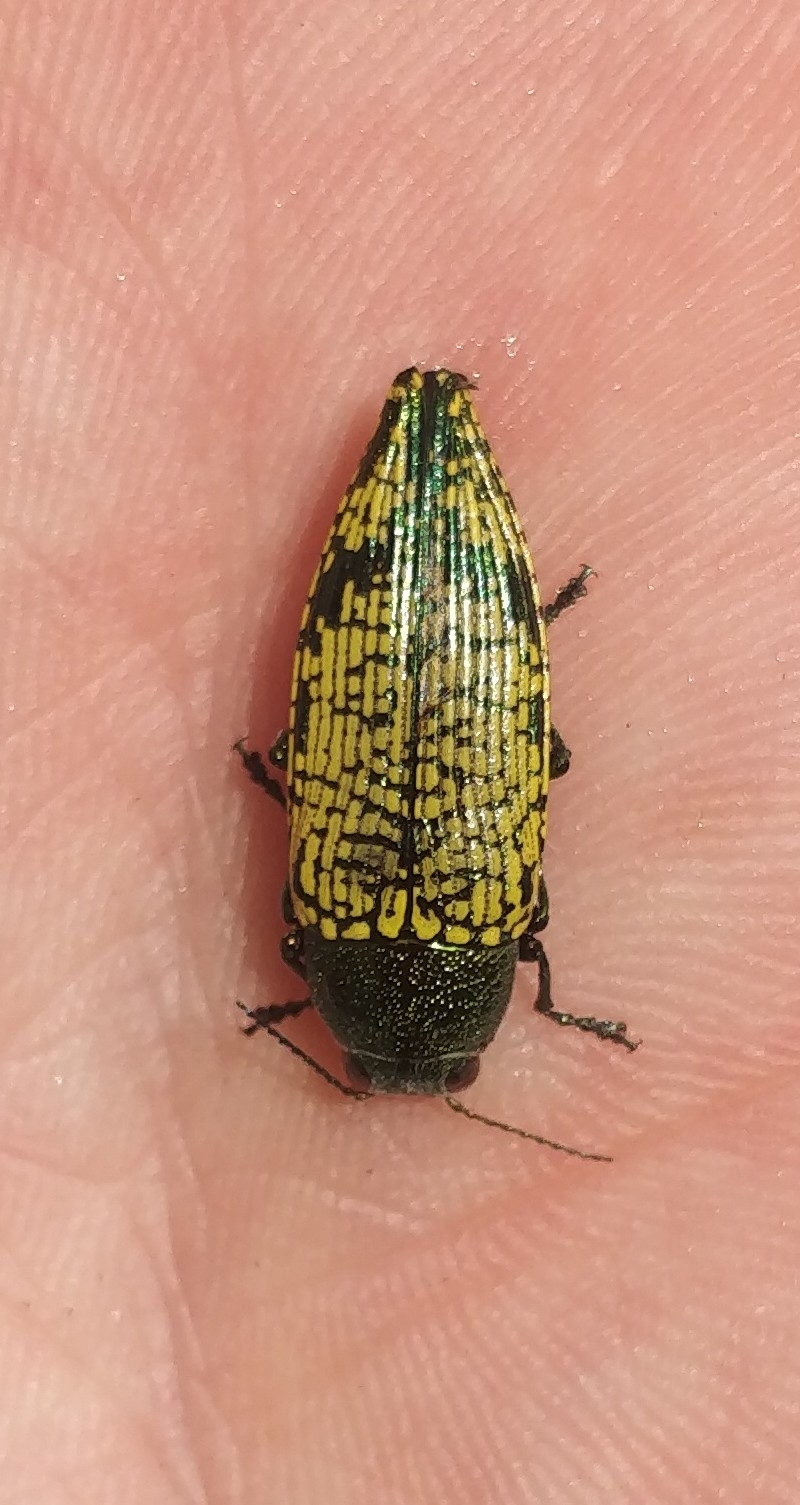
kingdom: Animalia
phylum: Arthropoda
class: Insecta
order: Coleoptera
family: Buprestidae
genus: Buprestis
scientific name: Buprestis confluenta
